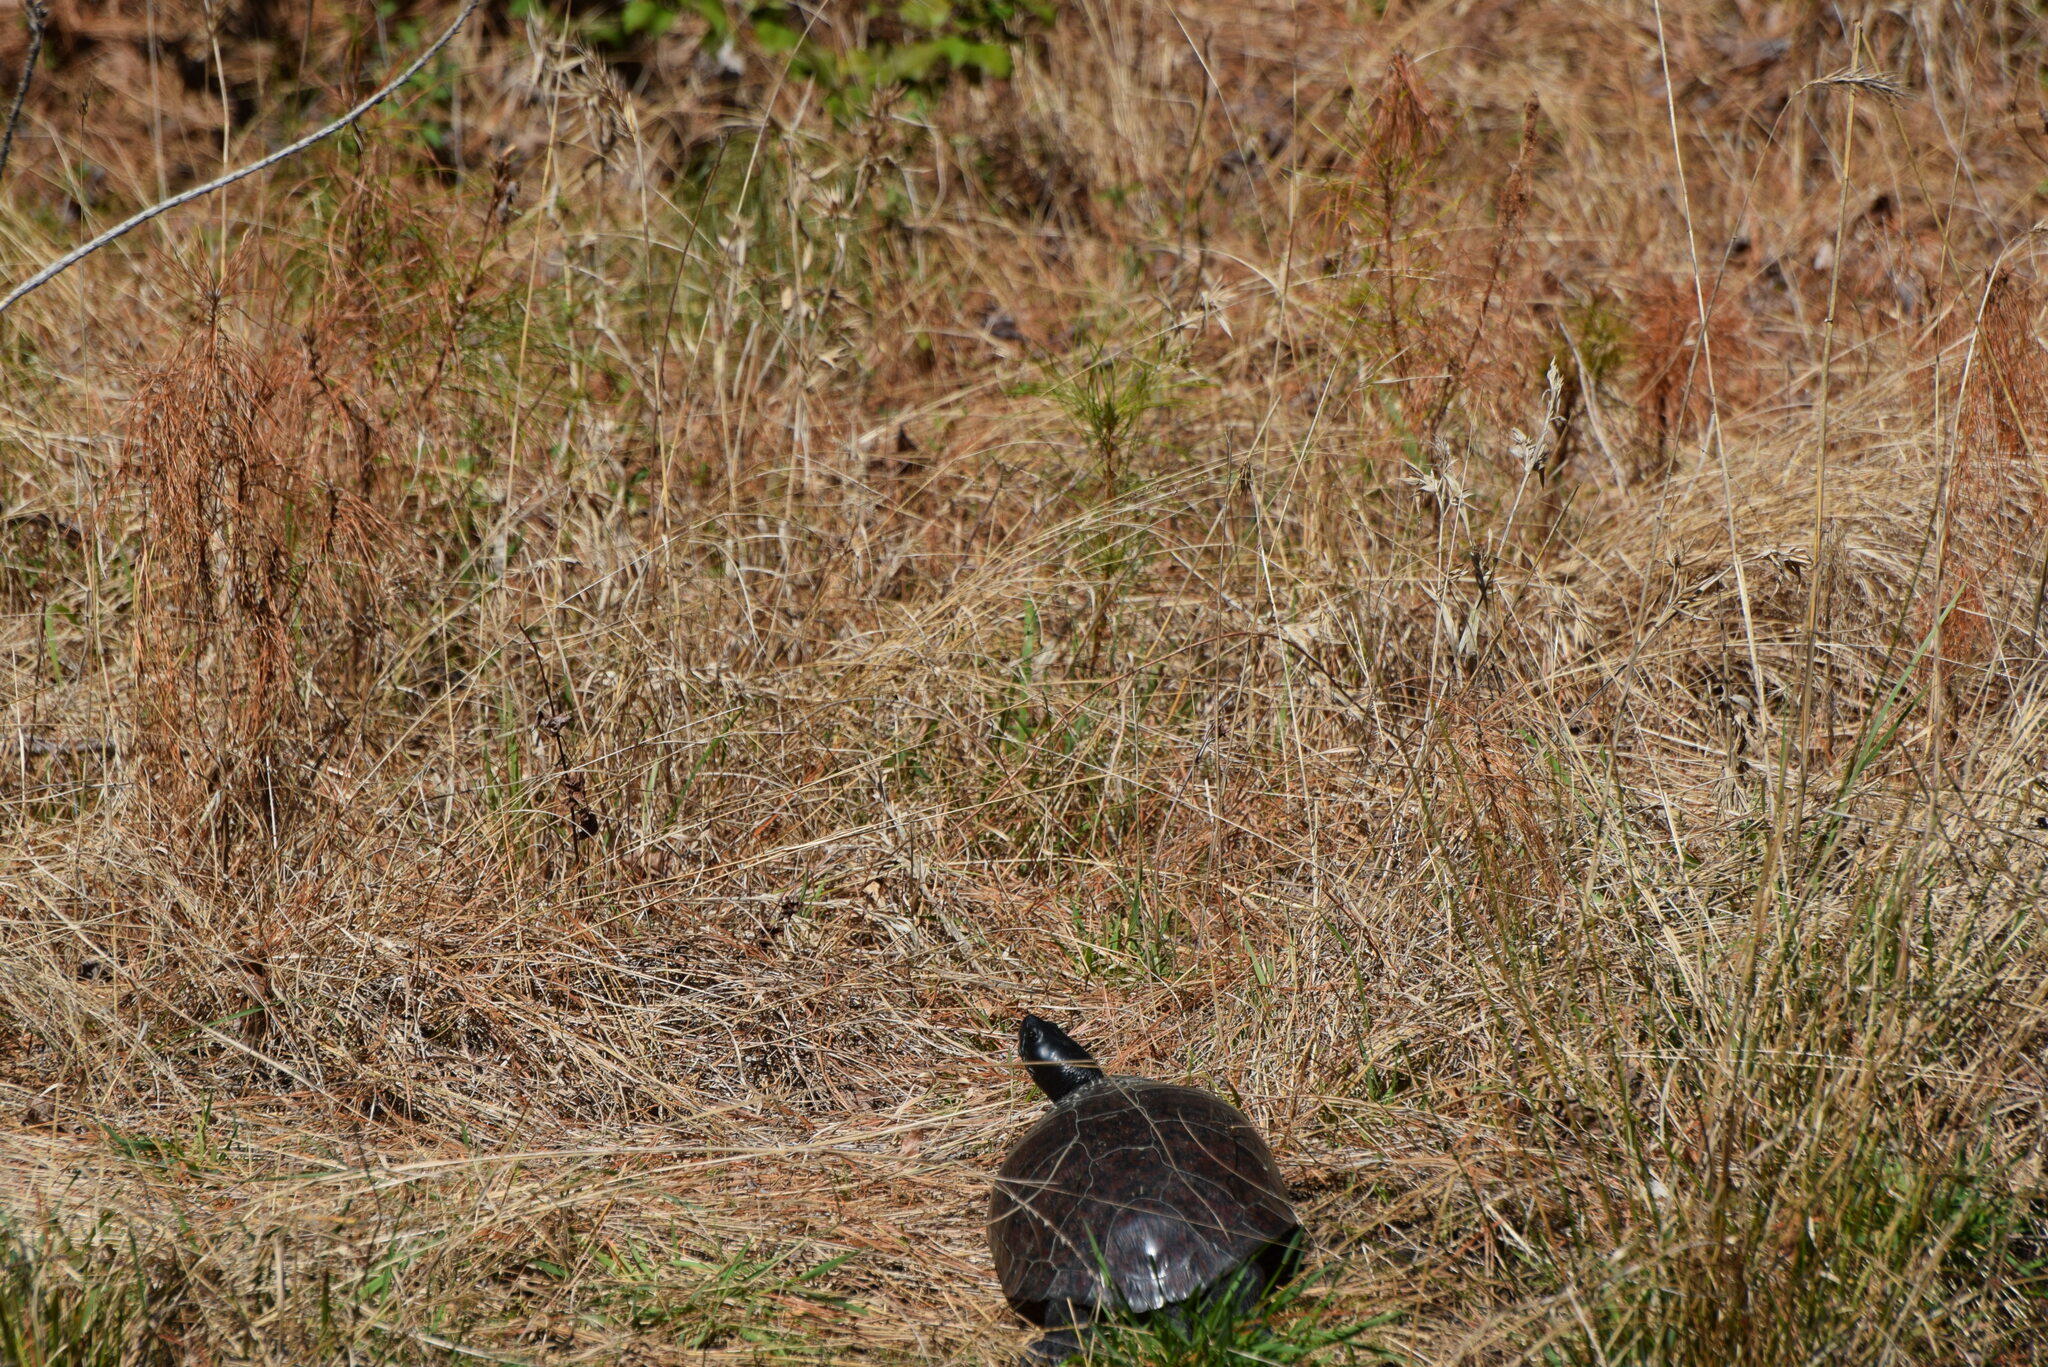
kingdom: Animalia
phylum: Chordata
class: Testudines
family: Emydidae
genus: Pseudemys
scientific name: Pseudemys rubriventris
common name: American red-bellied turtle
